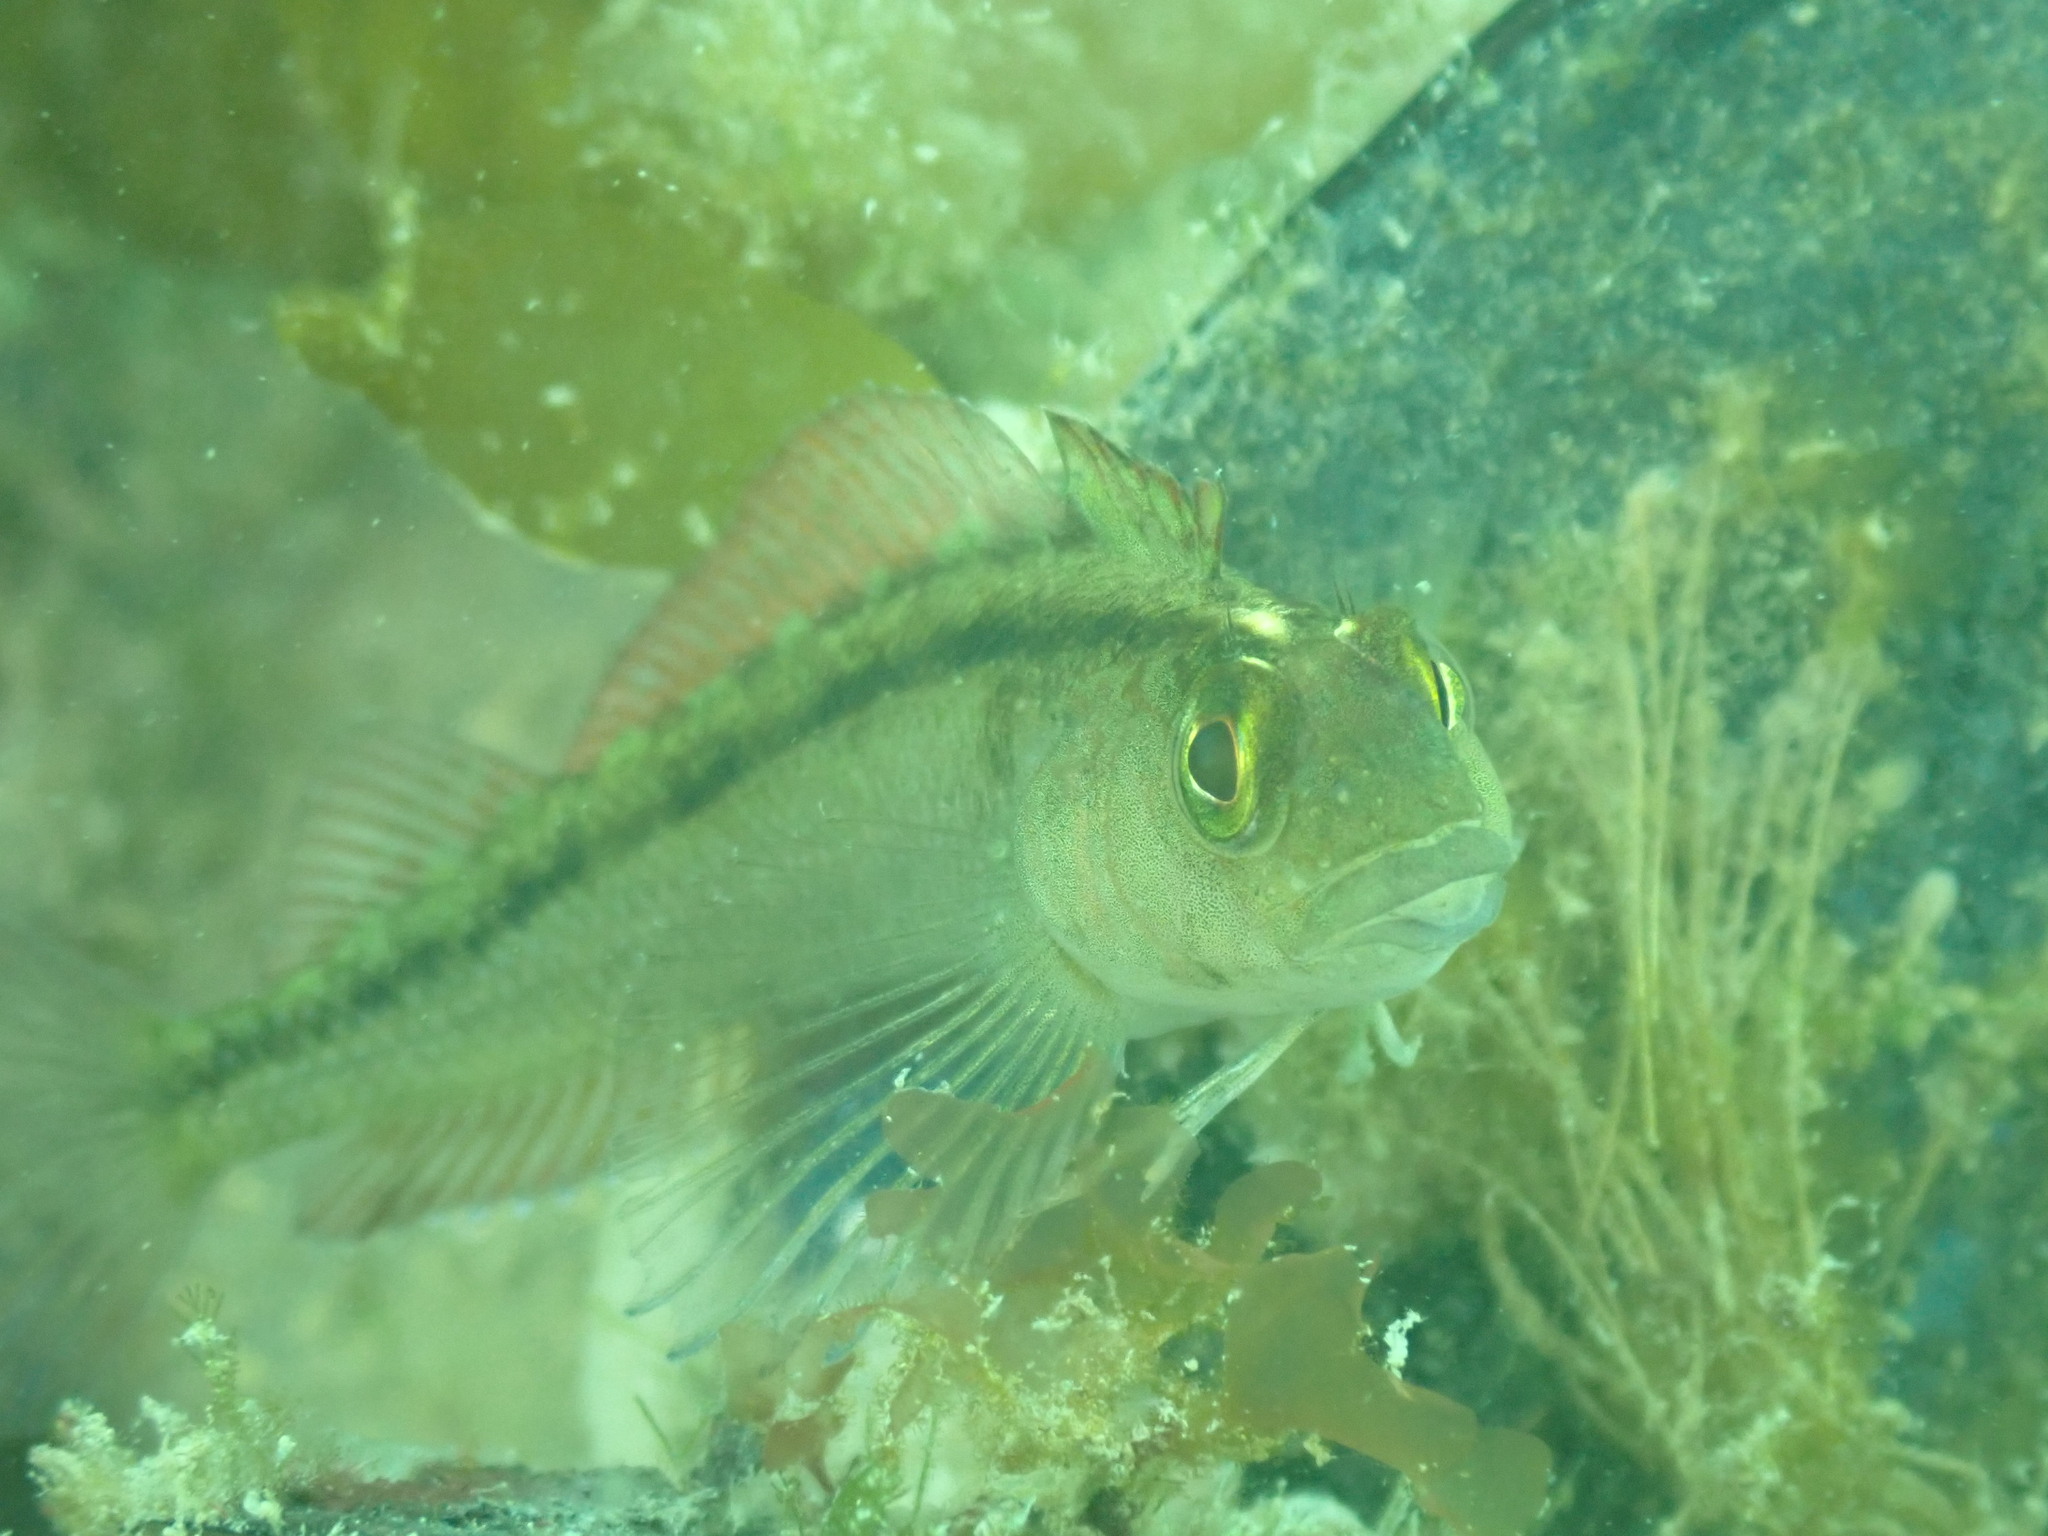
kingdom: Animalia
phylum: Chordata
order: Perciformes
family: Tripterygiidae
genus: Forsterygion
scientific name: Forsterygion lapillum
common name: Common triplefin
